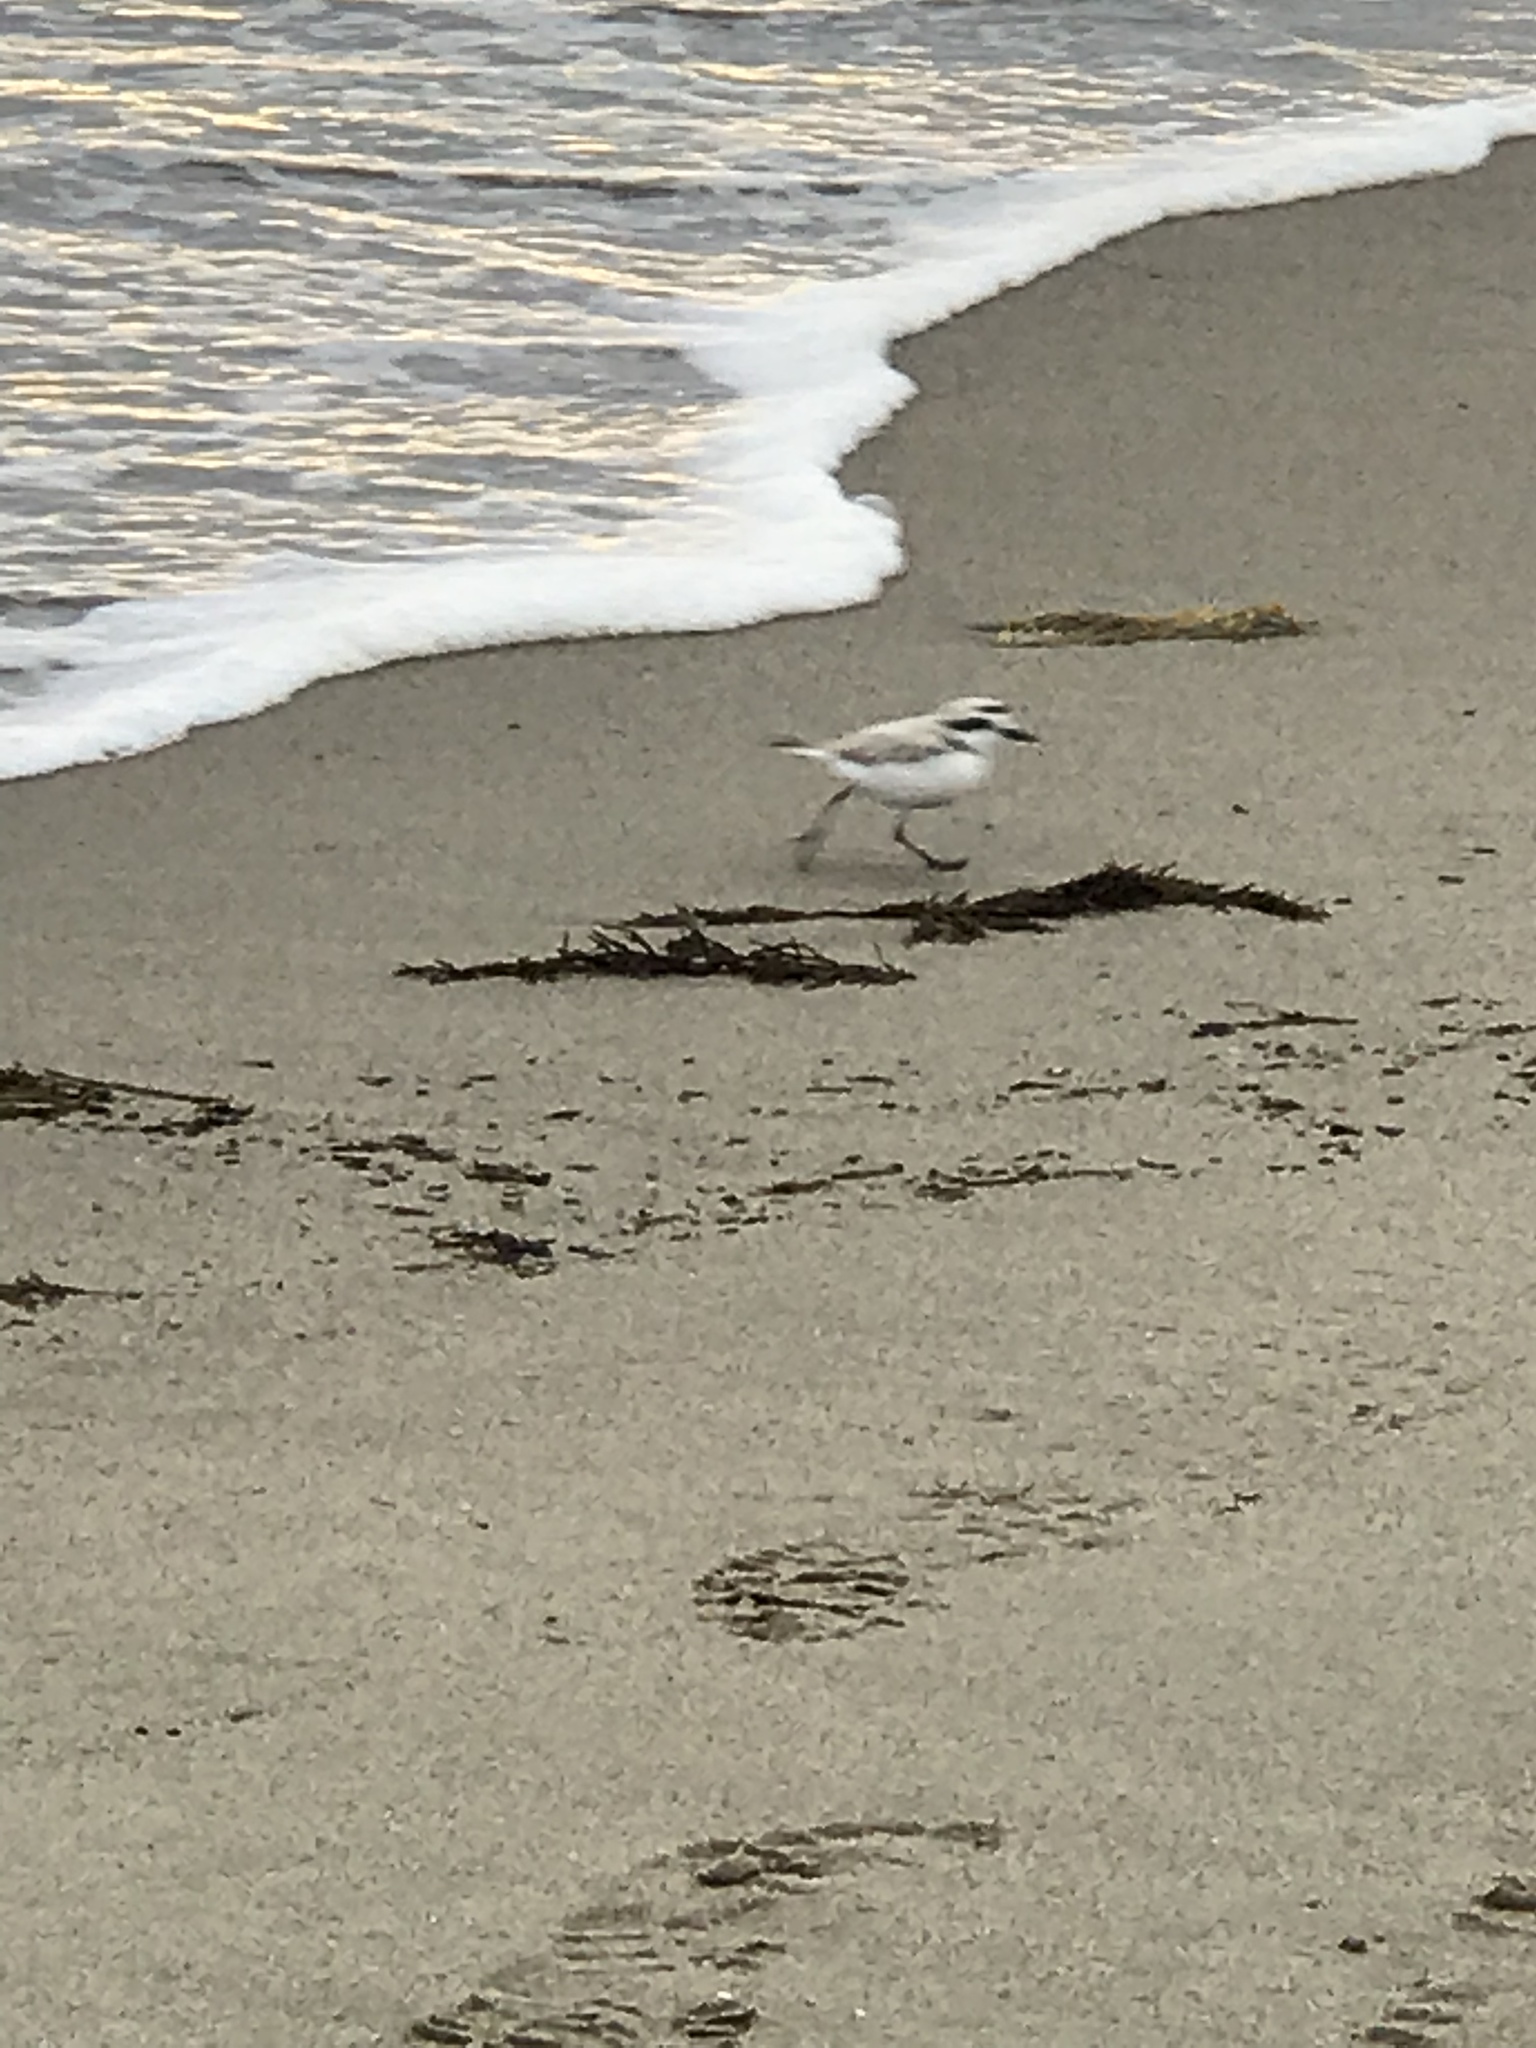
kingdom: Animalia
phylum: Chordata
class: Aves
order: Charadriiformes
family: Charadriidae
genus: Anarhynchus
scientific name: Anarhynchus
